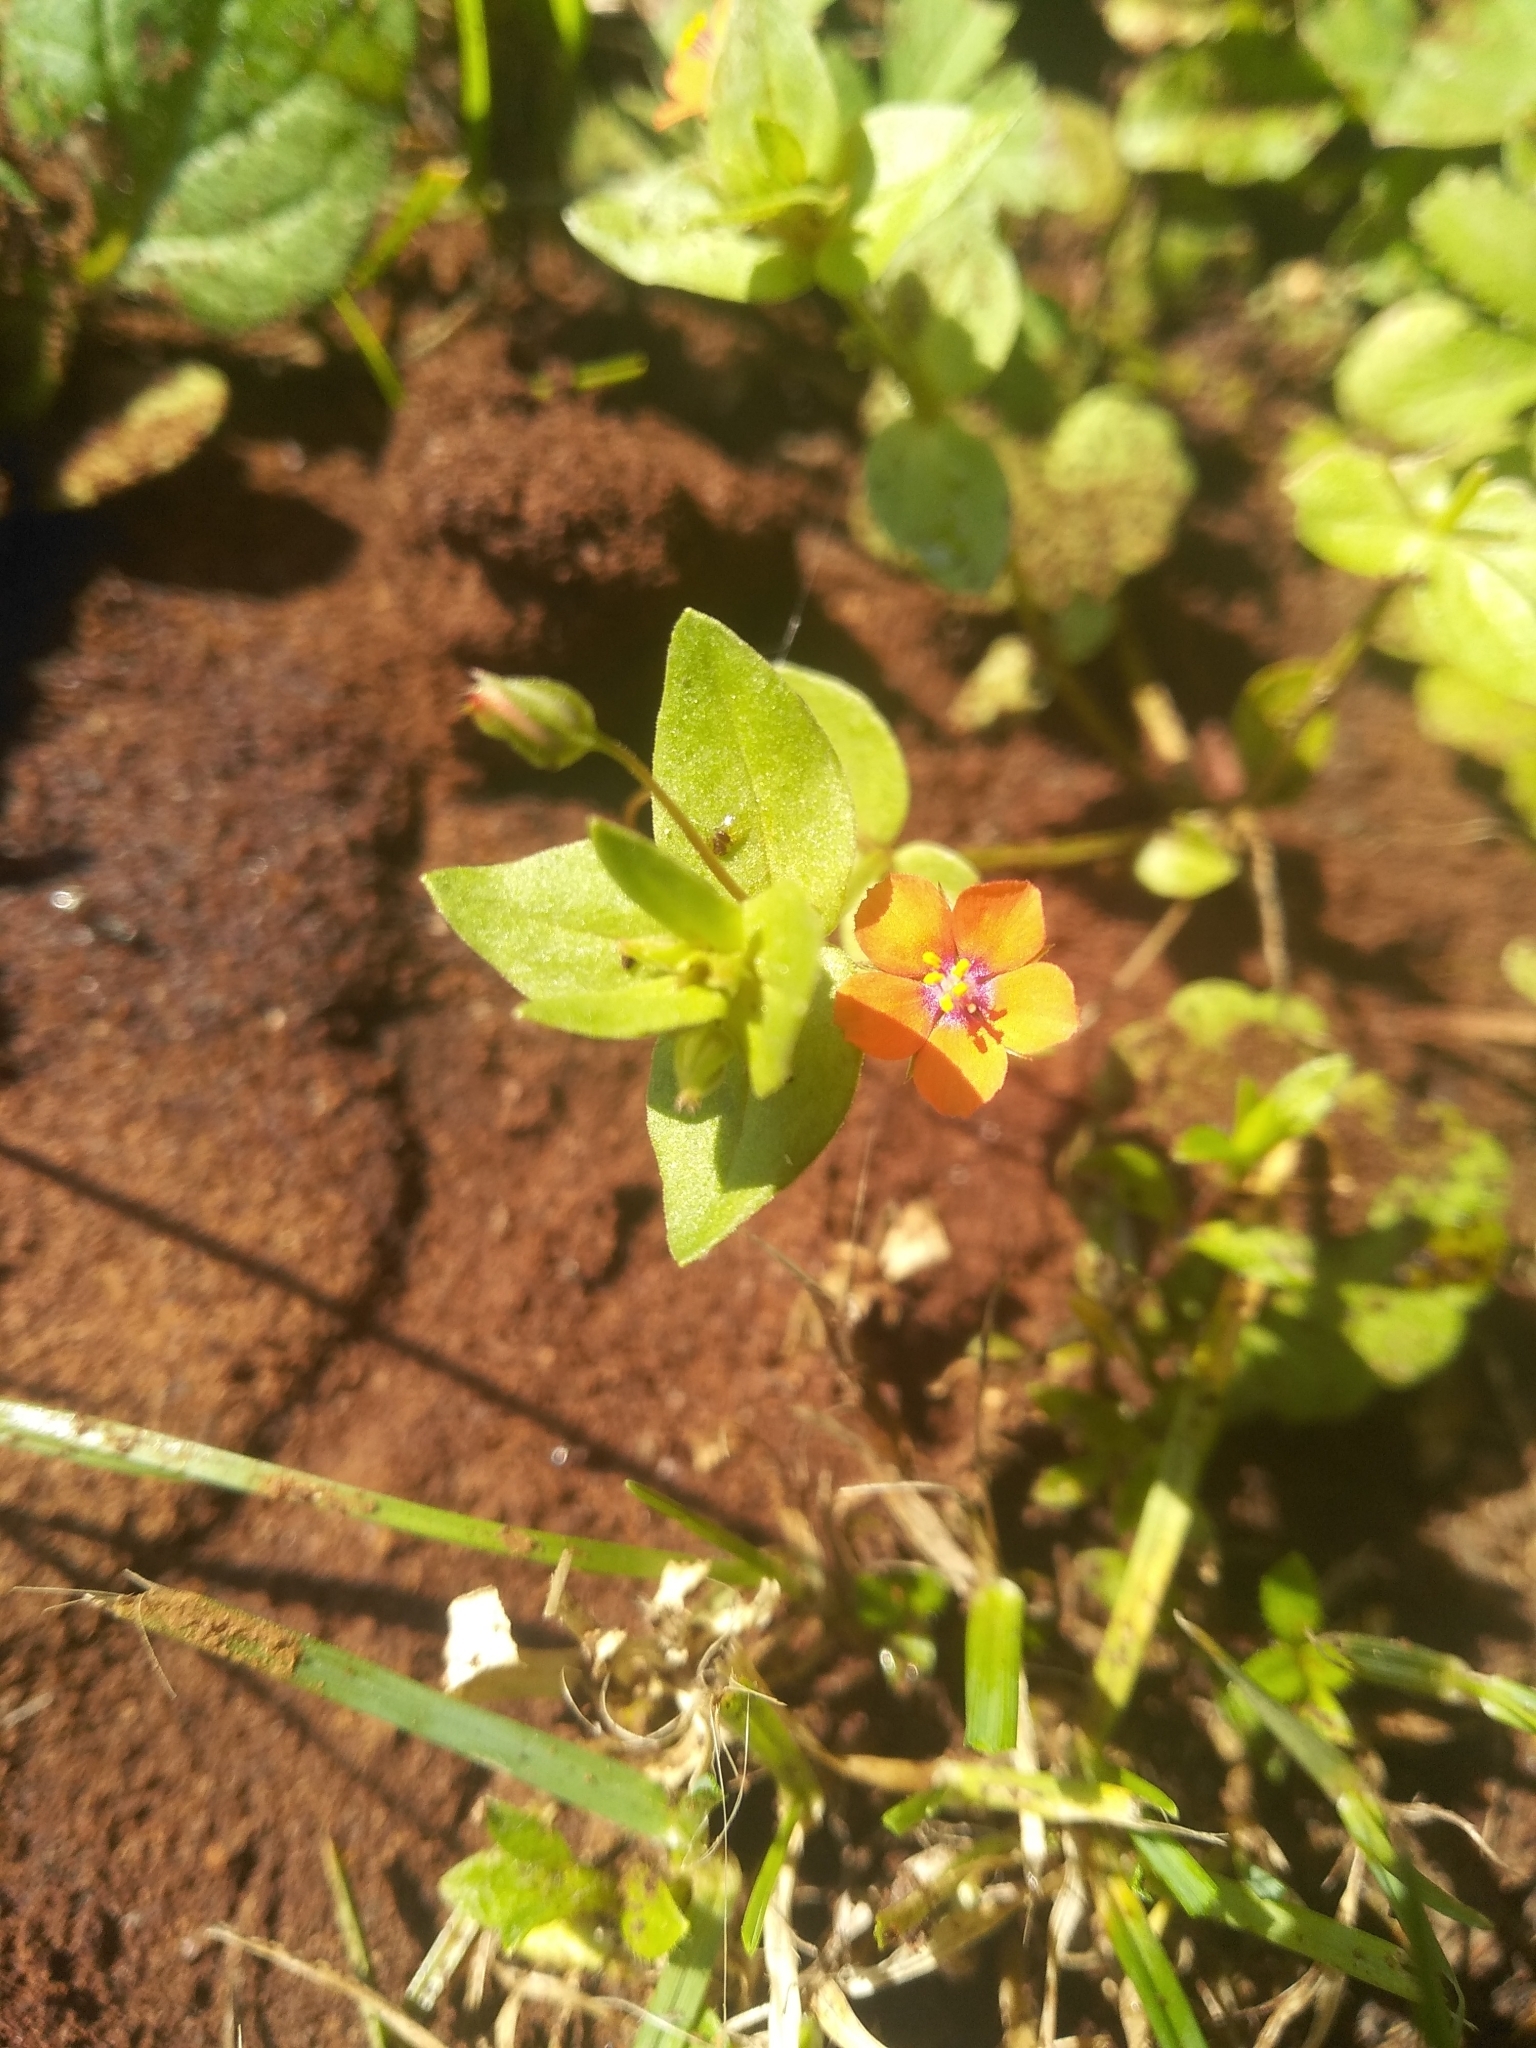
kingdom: Plantae
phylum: Tracheophyta
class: Magnoliopsida
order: Ericales
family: Primulaceae
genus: Lysimachia
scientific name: Lysimachia arvensis
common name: Scarlet pimpernel
